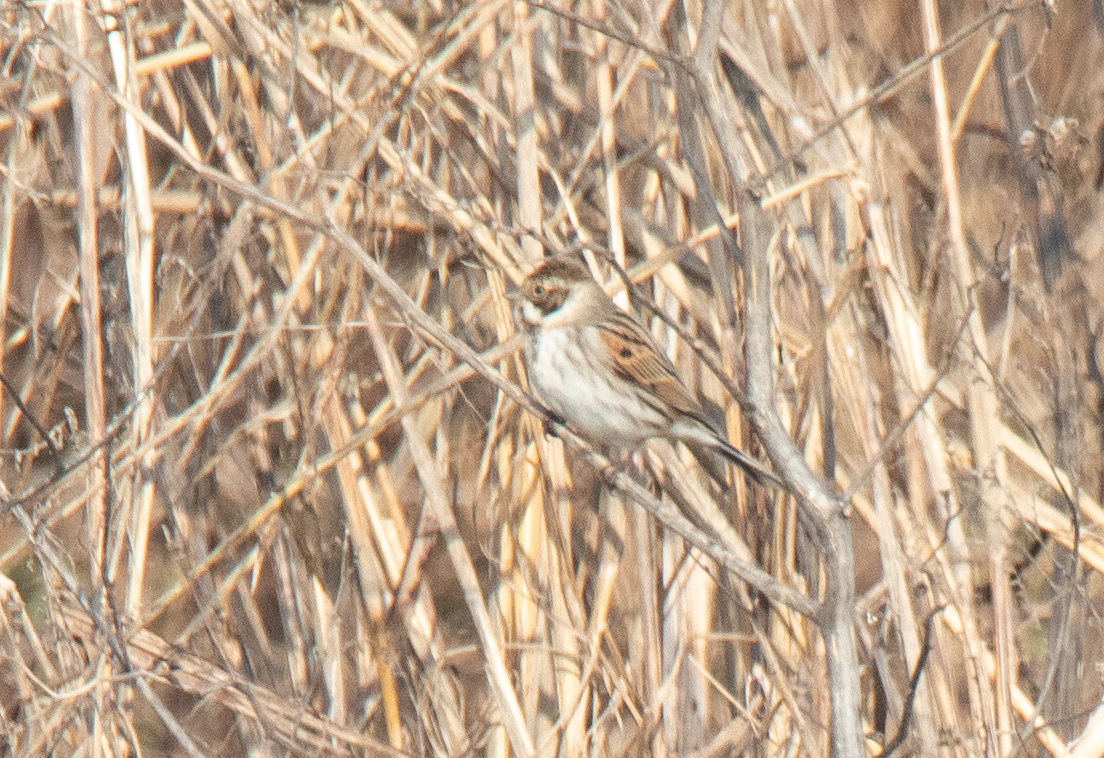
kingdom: Animalia
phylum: Chordata
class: Aves
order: Passeriformes
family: Emberizidae
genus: Emberiza
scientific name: Emberiza schoeniclus
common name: Reed bunting
